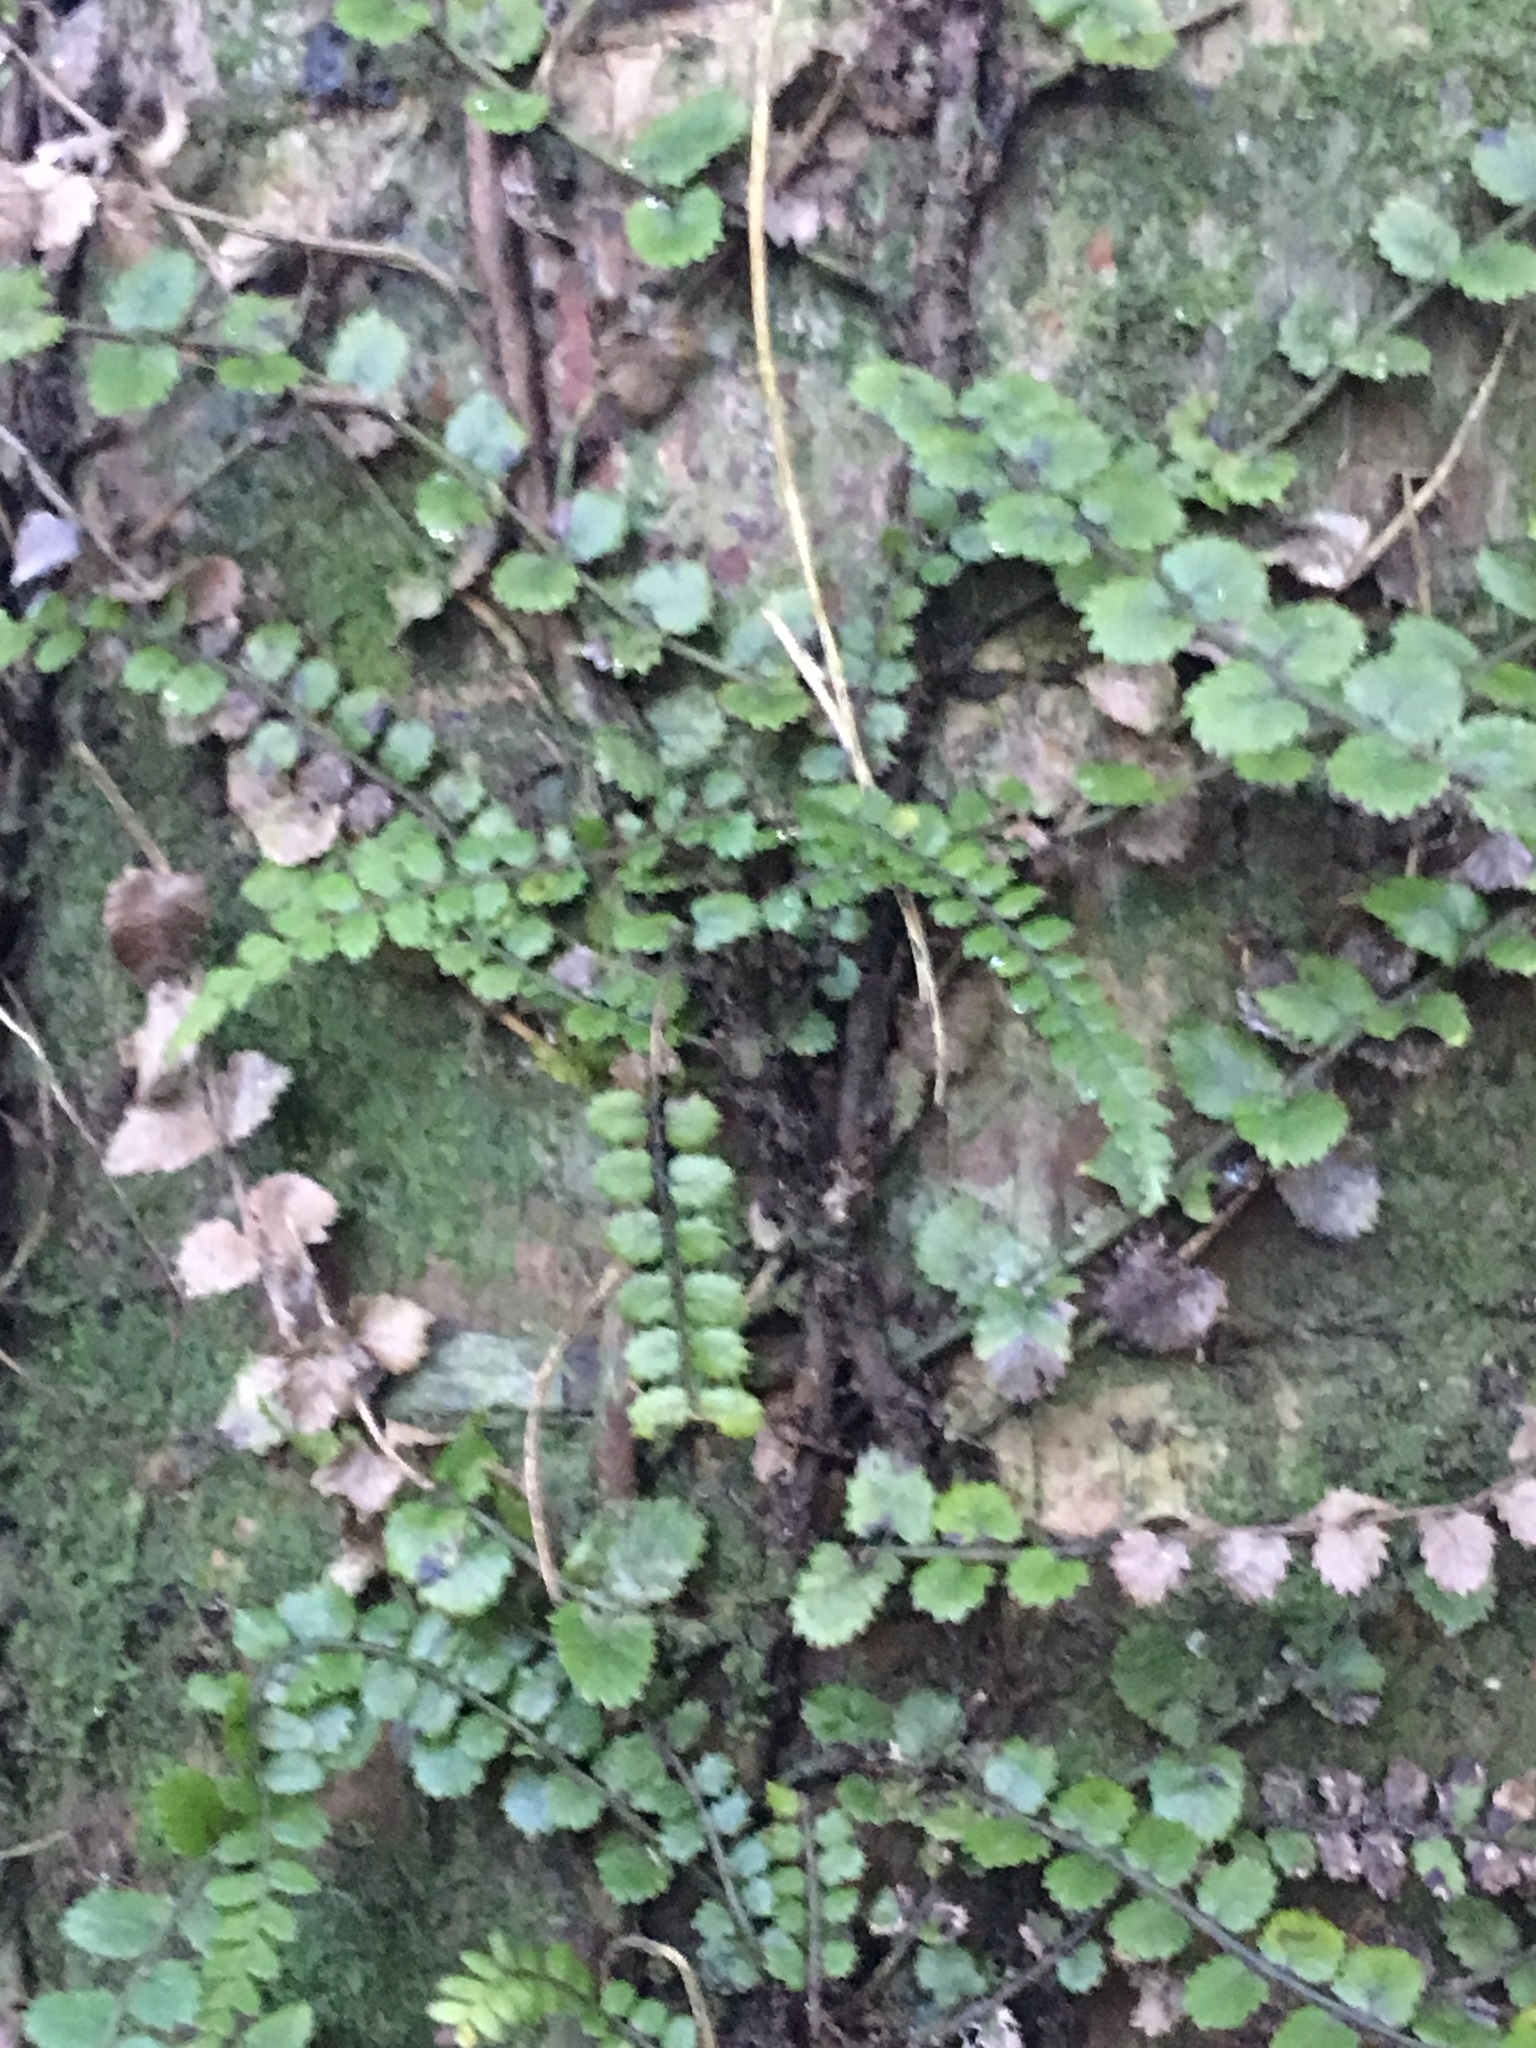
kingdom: Plantae
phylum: Tracheophyta
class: Polypodiopsida
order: Polypodiales
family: Blechnaceae
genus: Icarus
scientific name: Icarus filiformis
